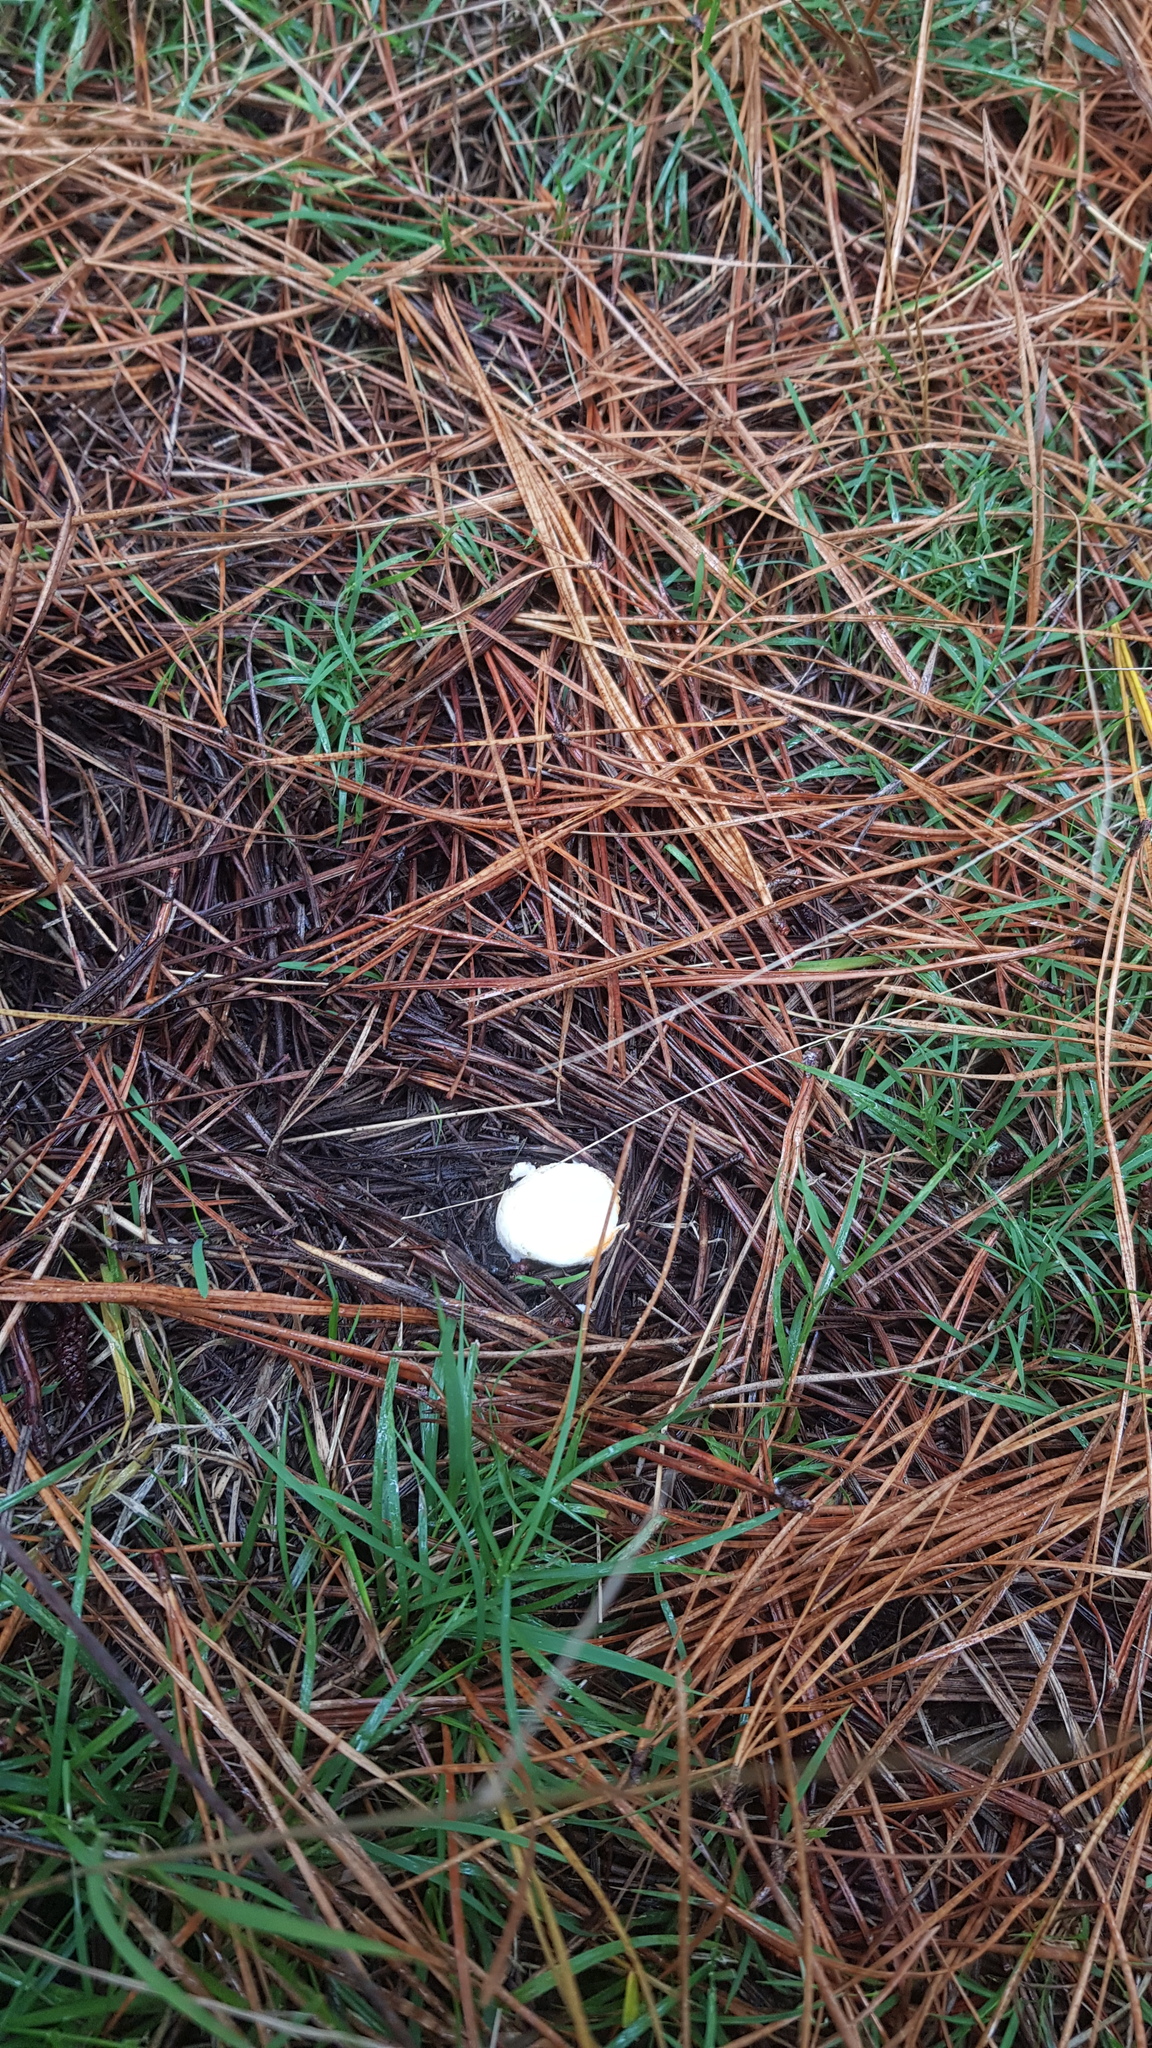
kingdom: Fungi
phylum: Basidiomycota
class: Agaricomycetes
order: Boletales
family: Suillaceae
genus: Suillus
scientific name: Suillus luteus
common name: Slippery jack
